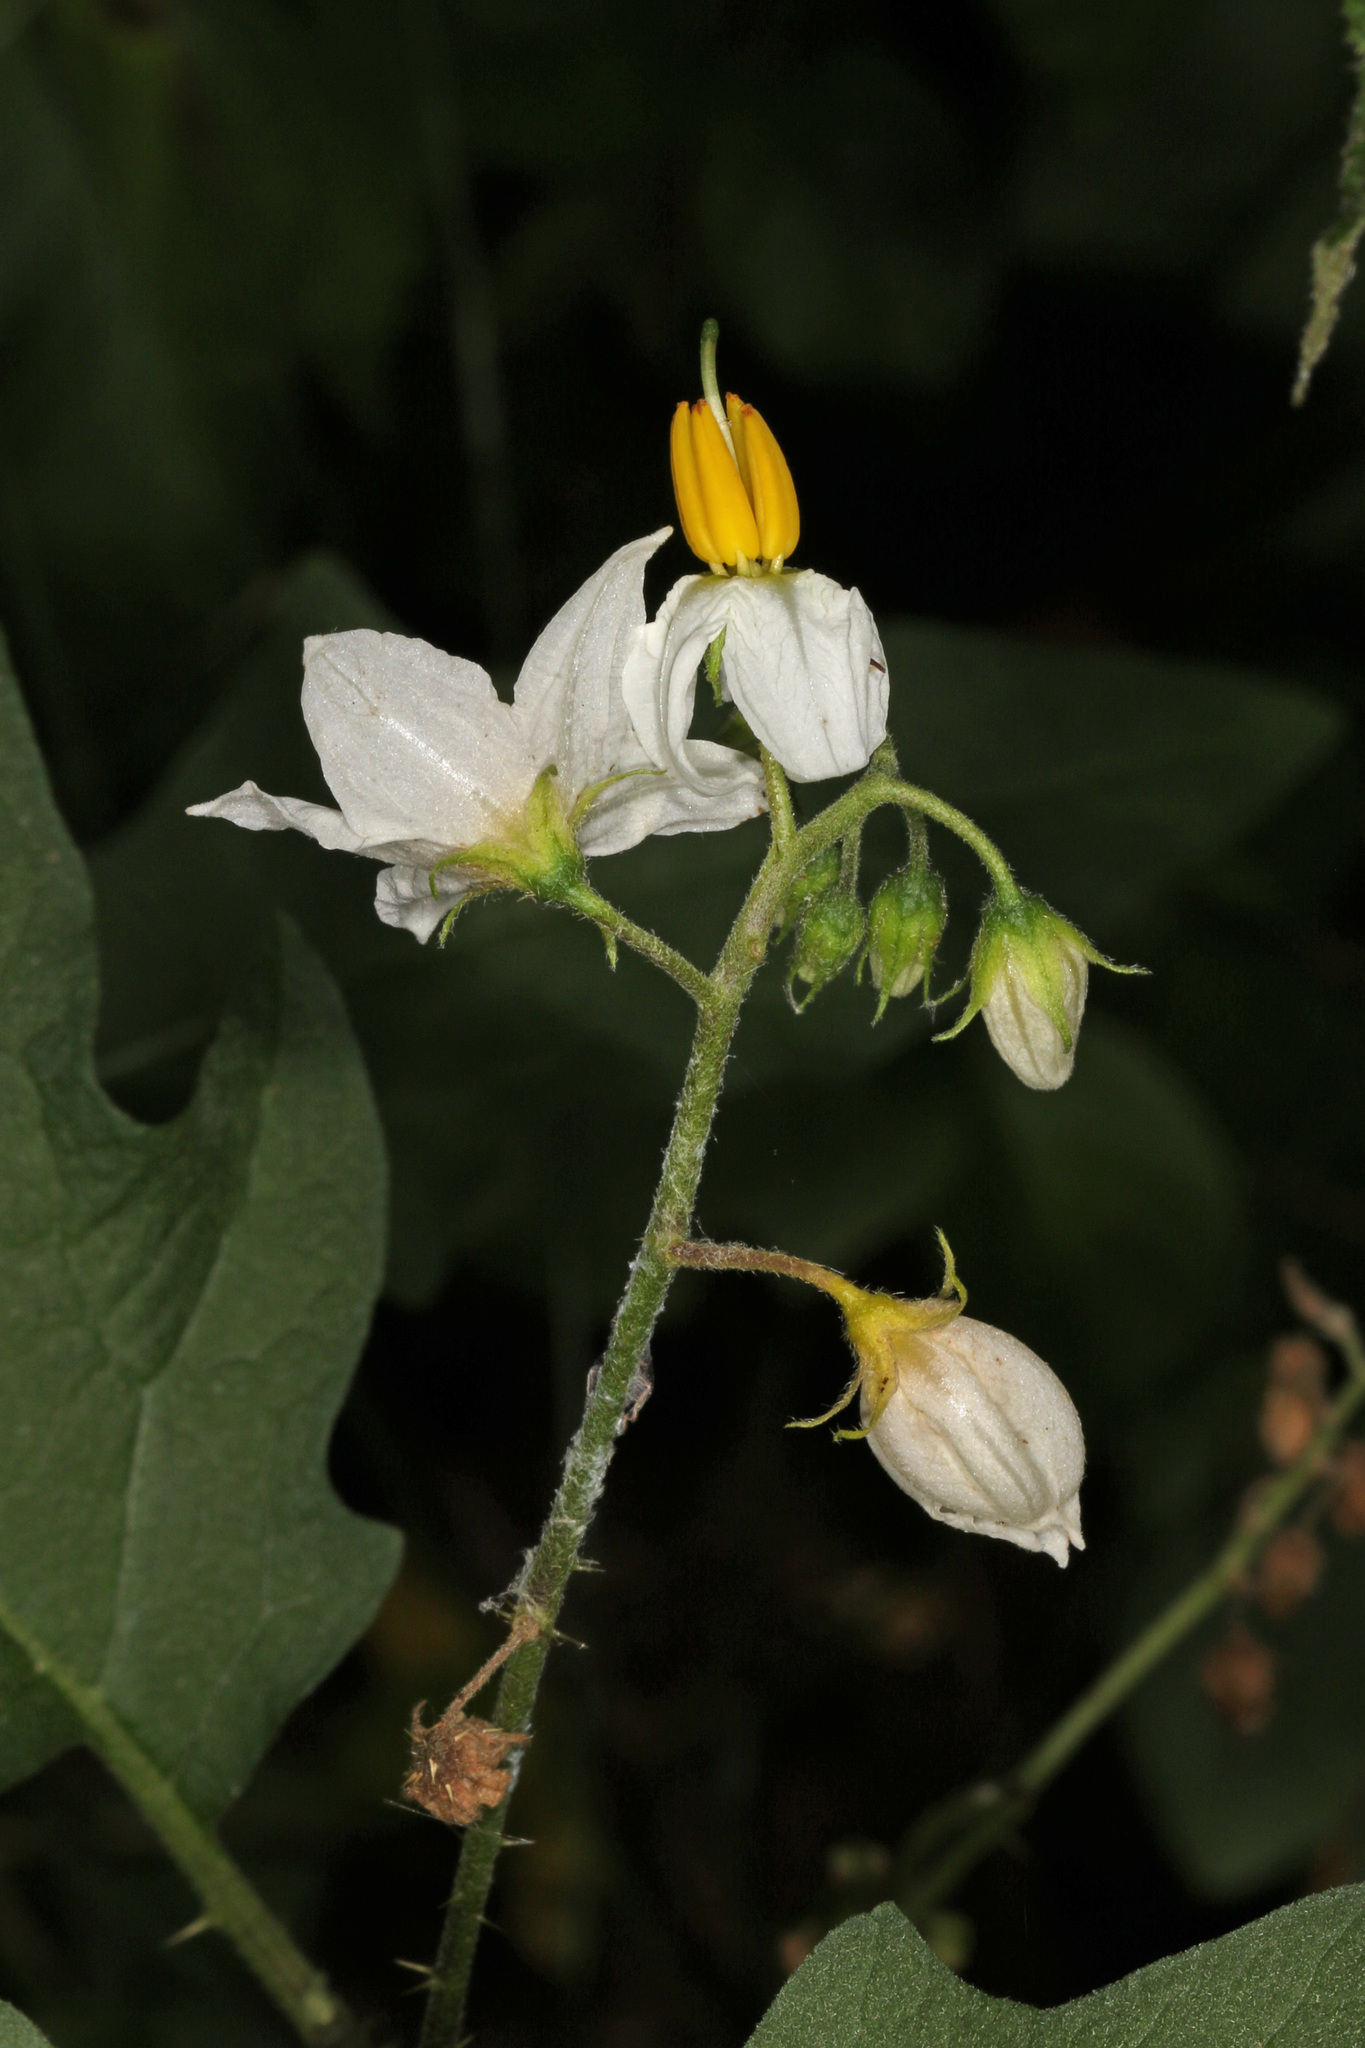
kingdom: Plantae
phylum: Tracheophyta
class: Magnoliopsida
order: Solanales
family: Solanaceae
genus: Solanum
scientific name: Solanum carolinense
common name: Horse-nettle
